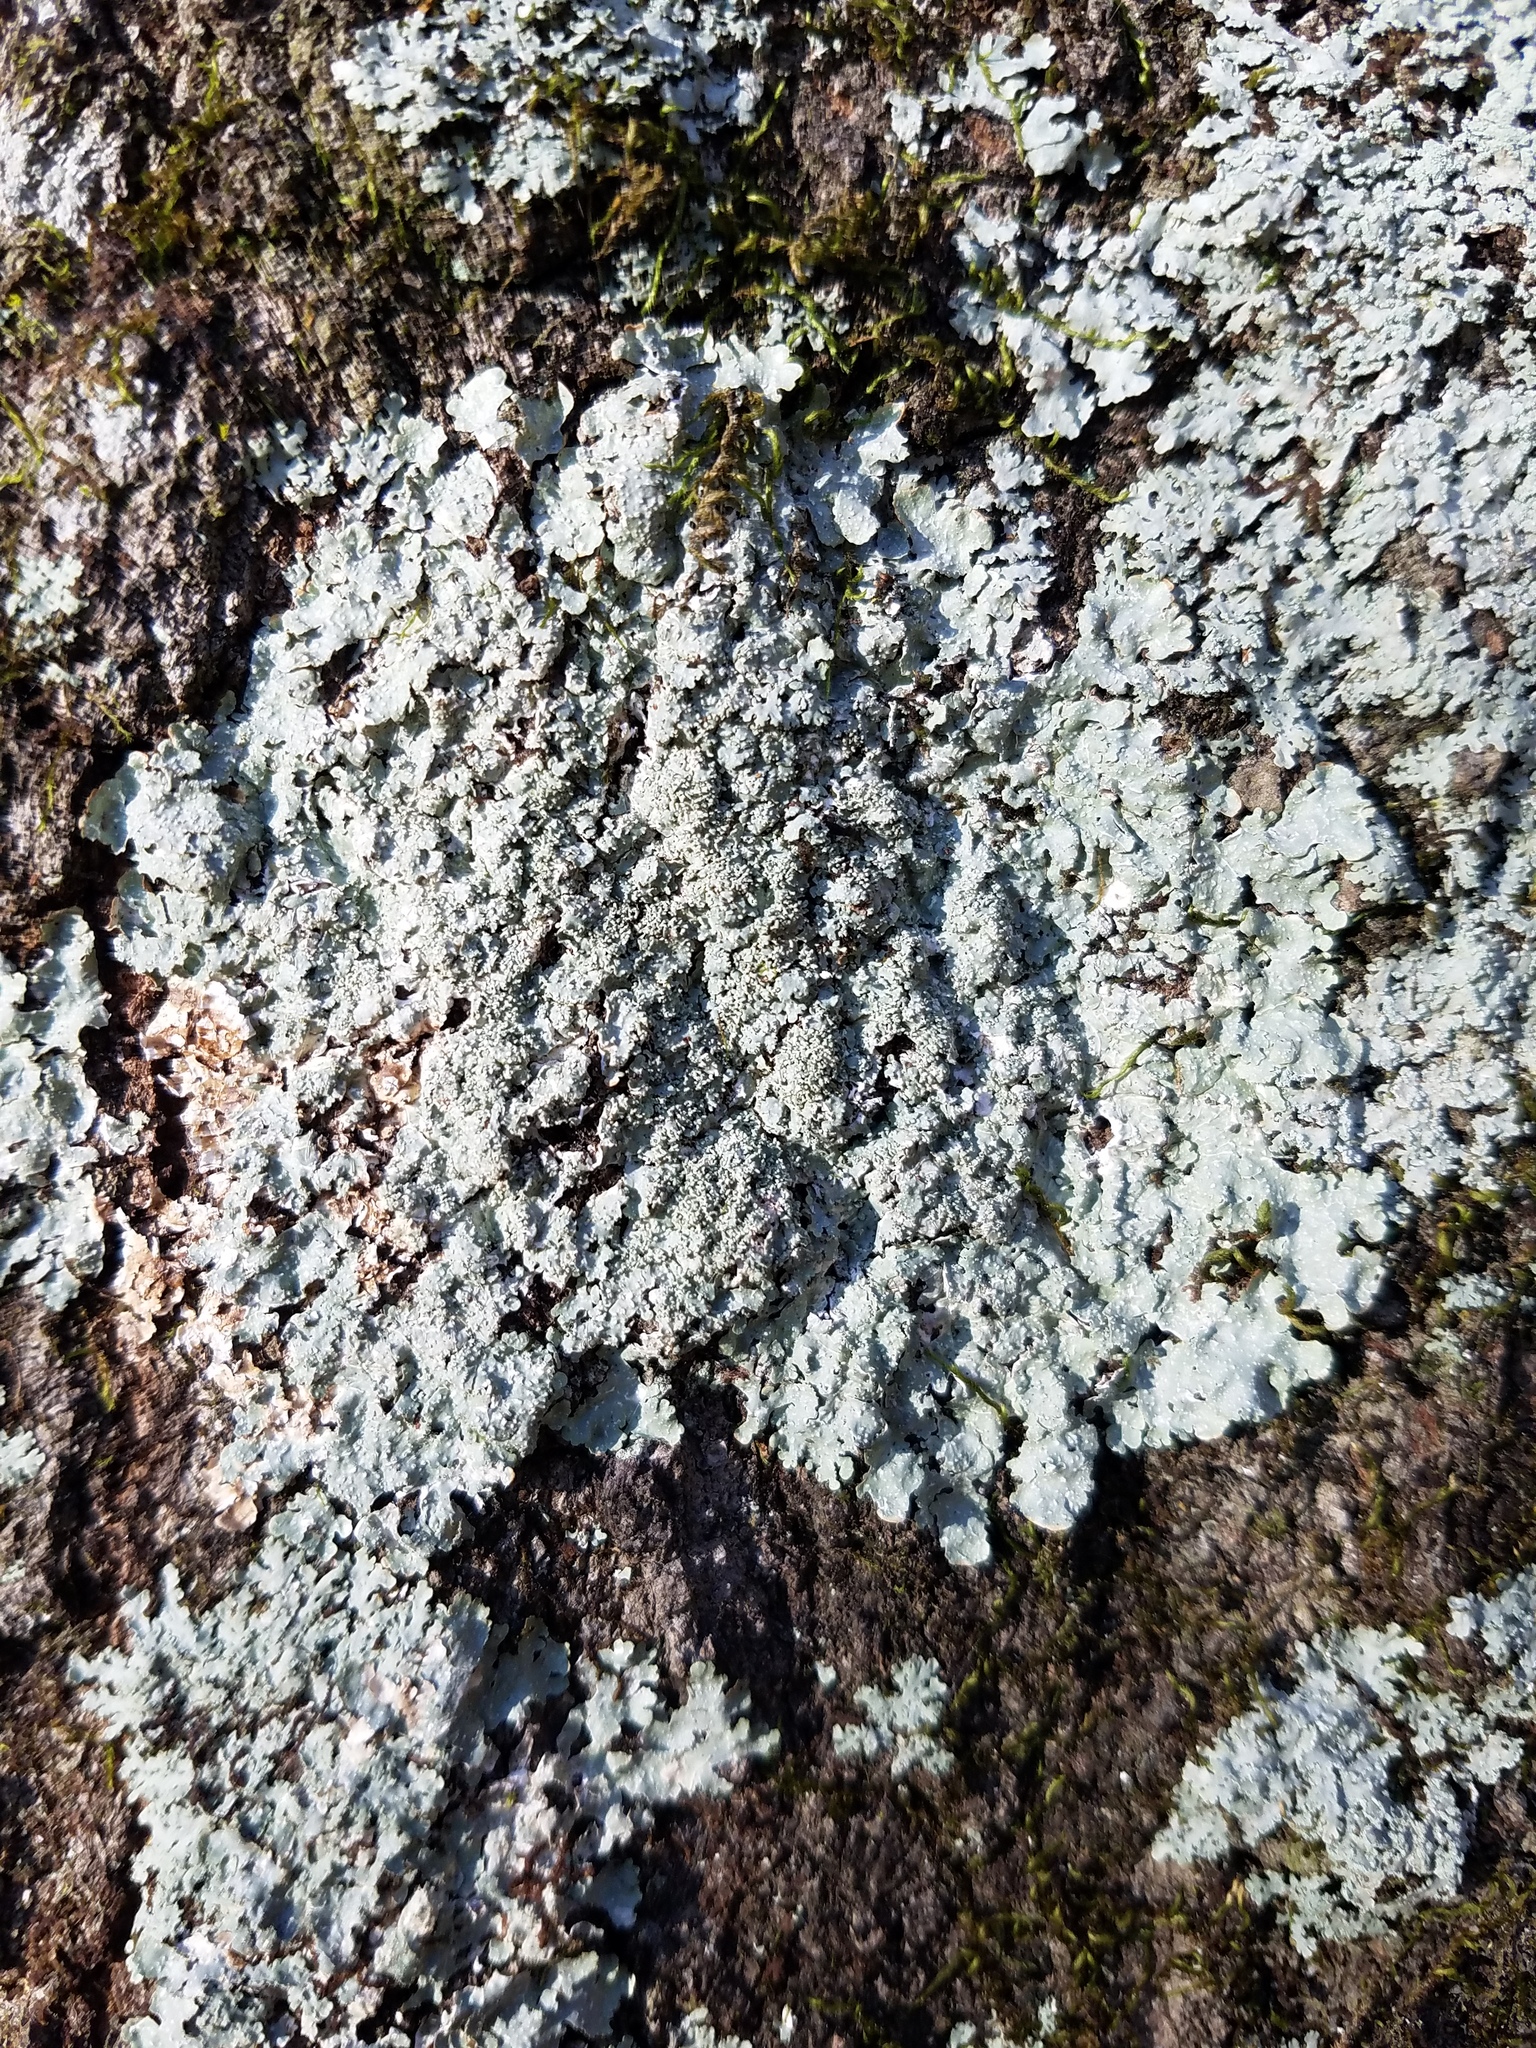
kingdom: Fungi
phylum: Ascomycota
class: Lecanoromycetes
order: Lecanorales
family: Parmeliaceae
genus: Punctelia
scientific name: Punctelia missouriensis
